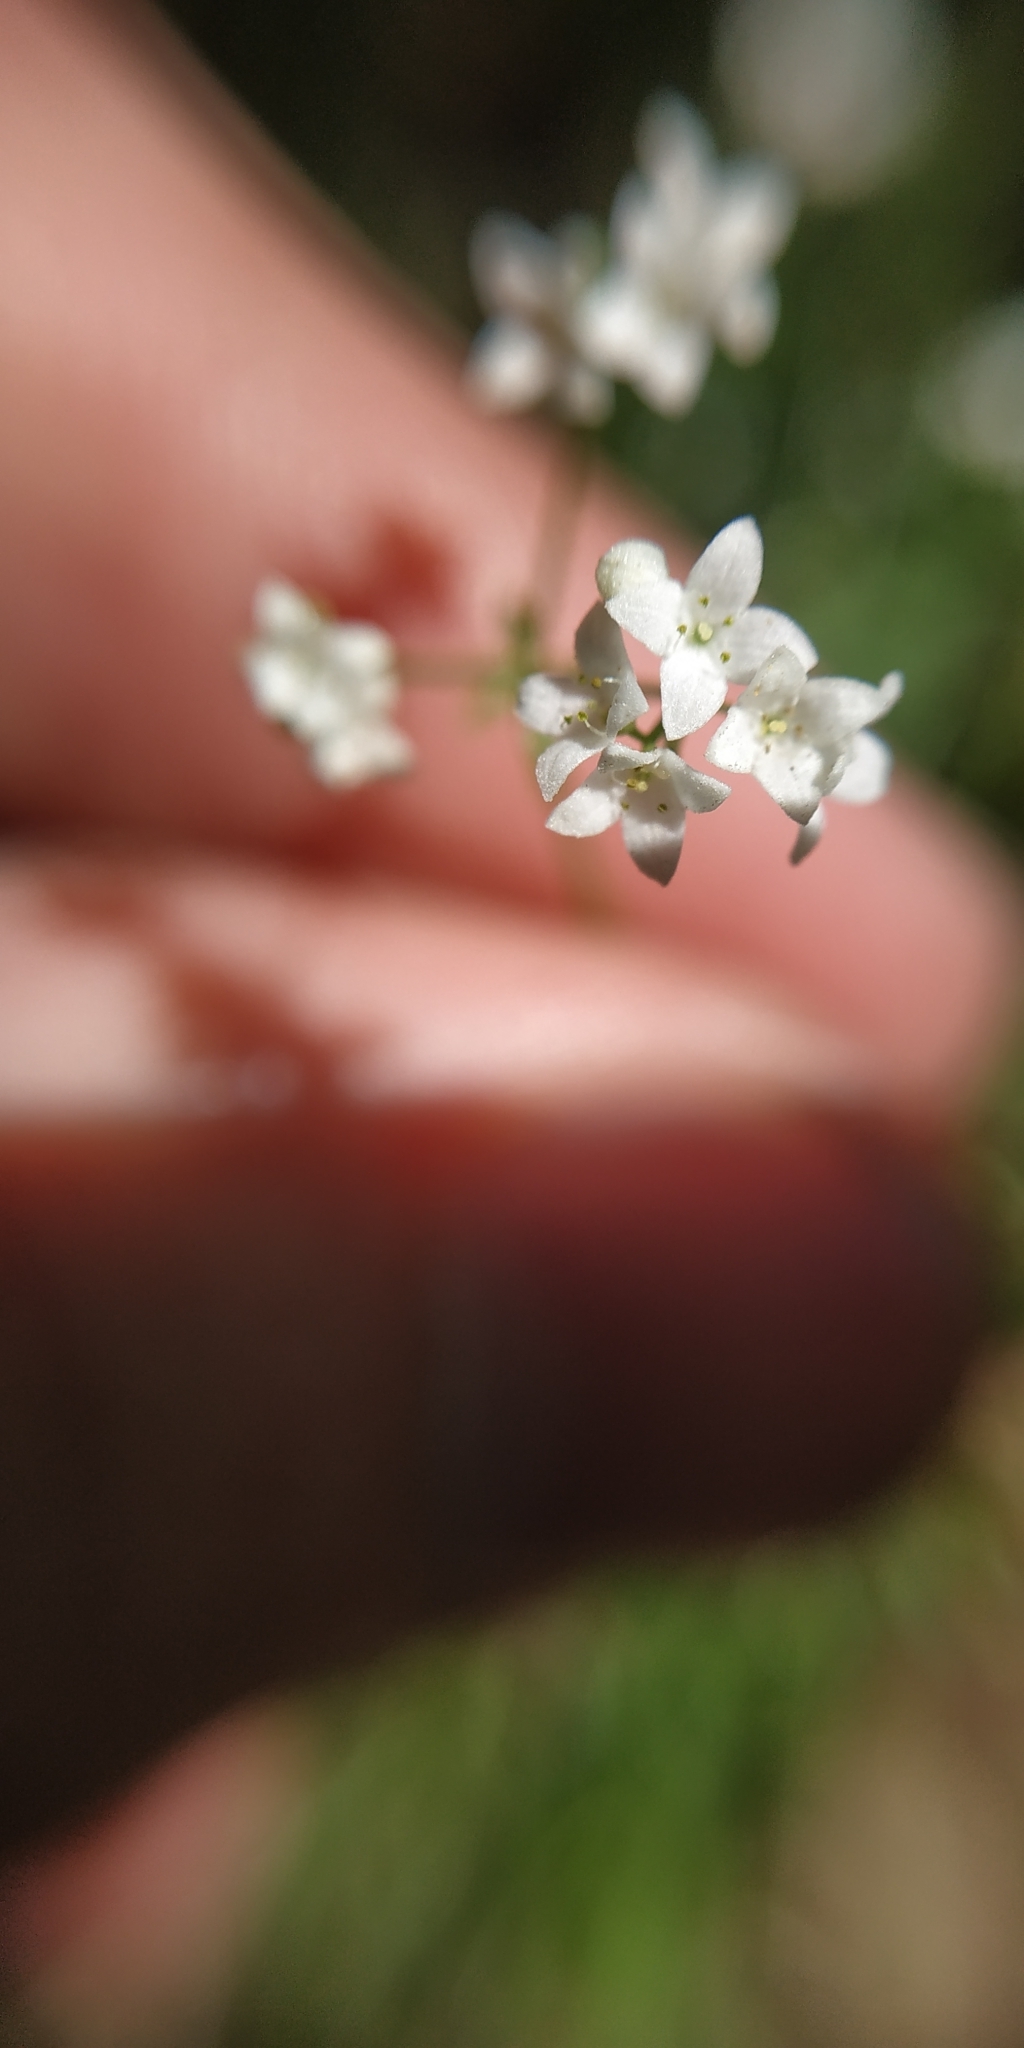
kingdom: Plantae
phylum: Tracheophyta
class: Magnoliopsida
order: Gentianales
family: Rubiaceae
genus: Galium
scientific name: Galium palustre
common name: Common marsh-bedstraw
